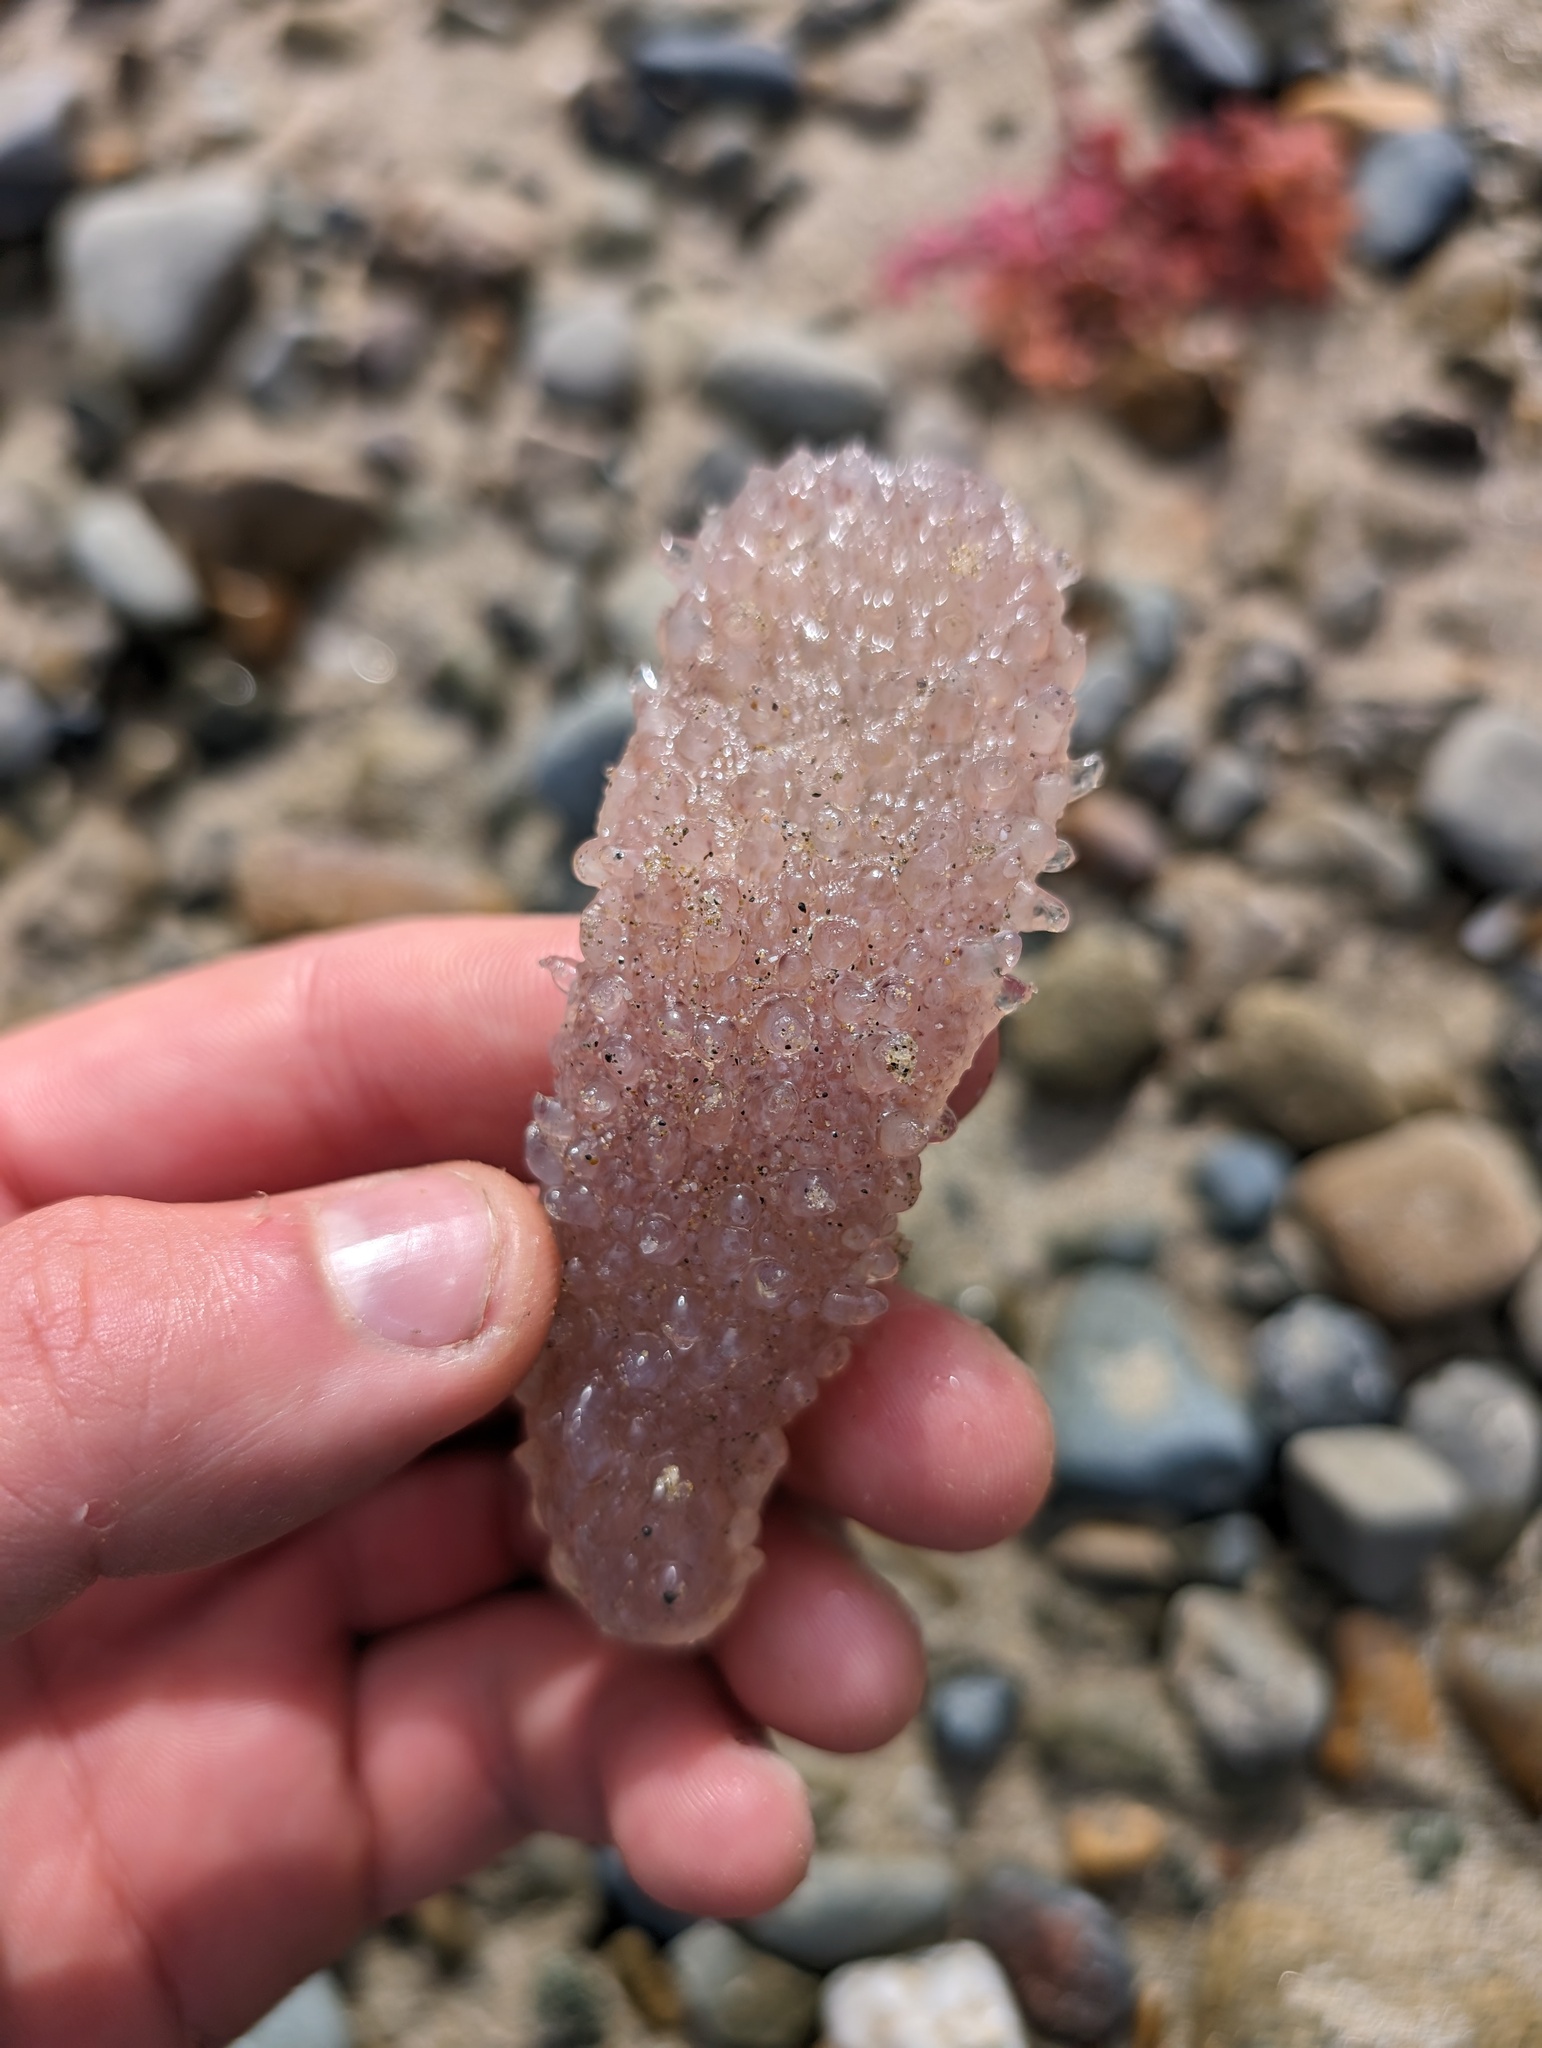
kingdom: Animalia
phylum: Chordata
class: Thaliacea
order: Pyrosomatida
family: Pyrosomatidae
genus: Pyrosoma
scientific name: Pyrosoma atlanticum
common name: Atlantic pyrosomes
